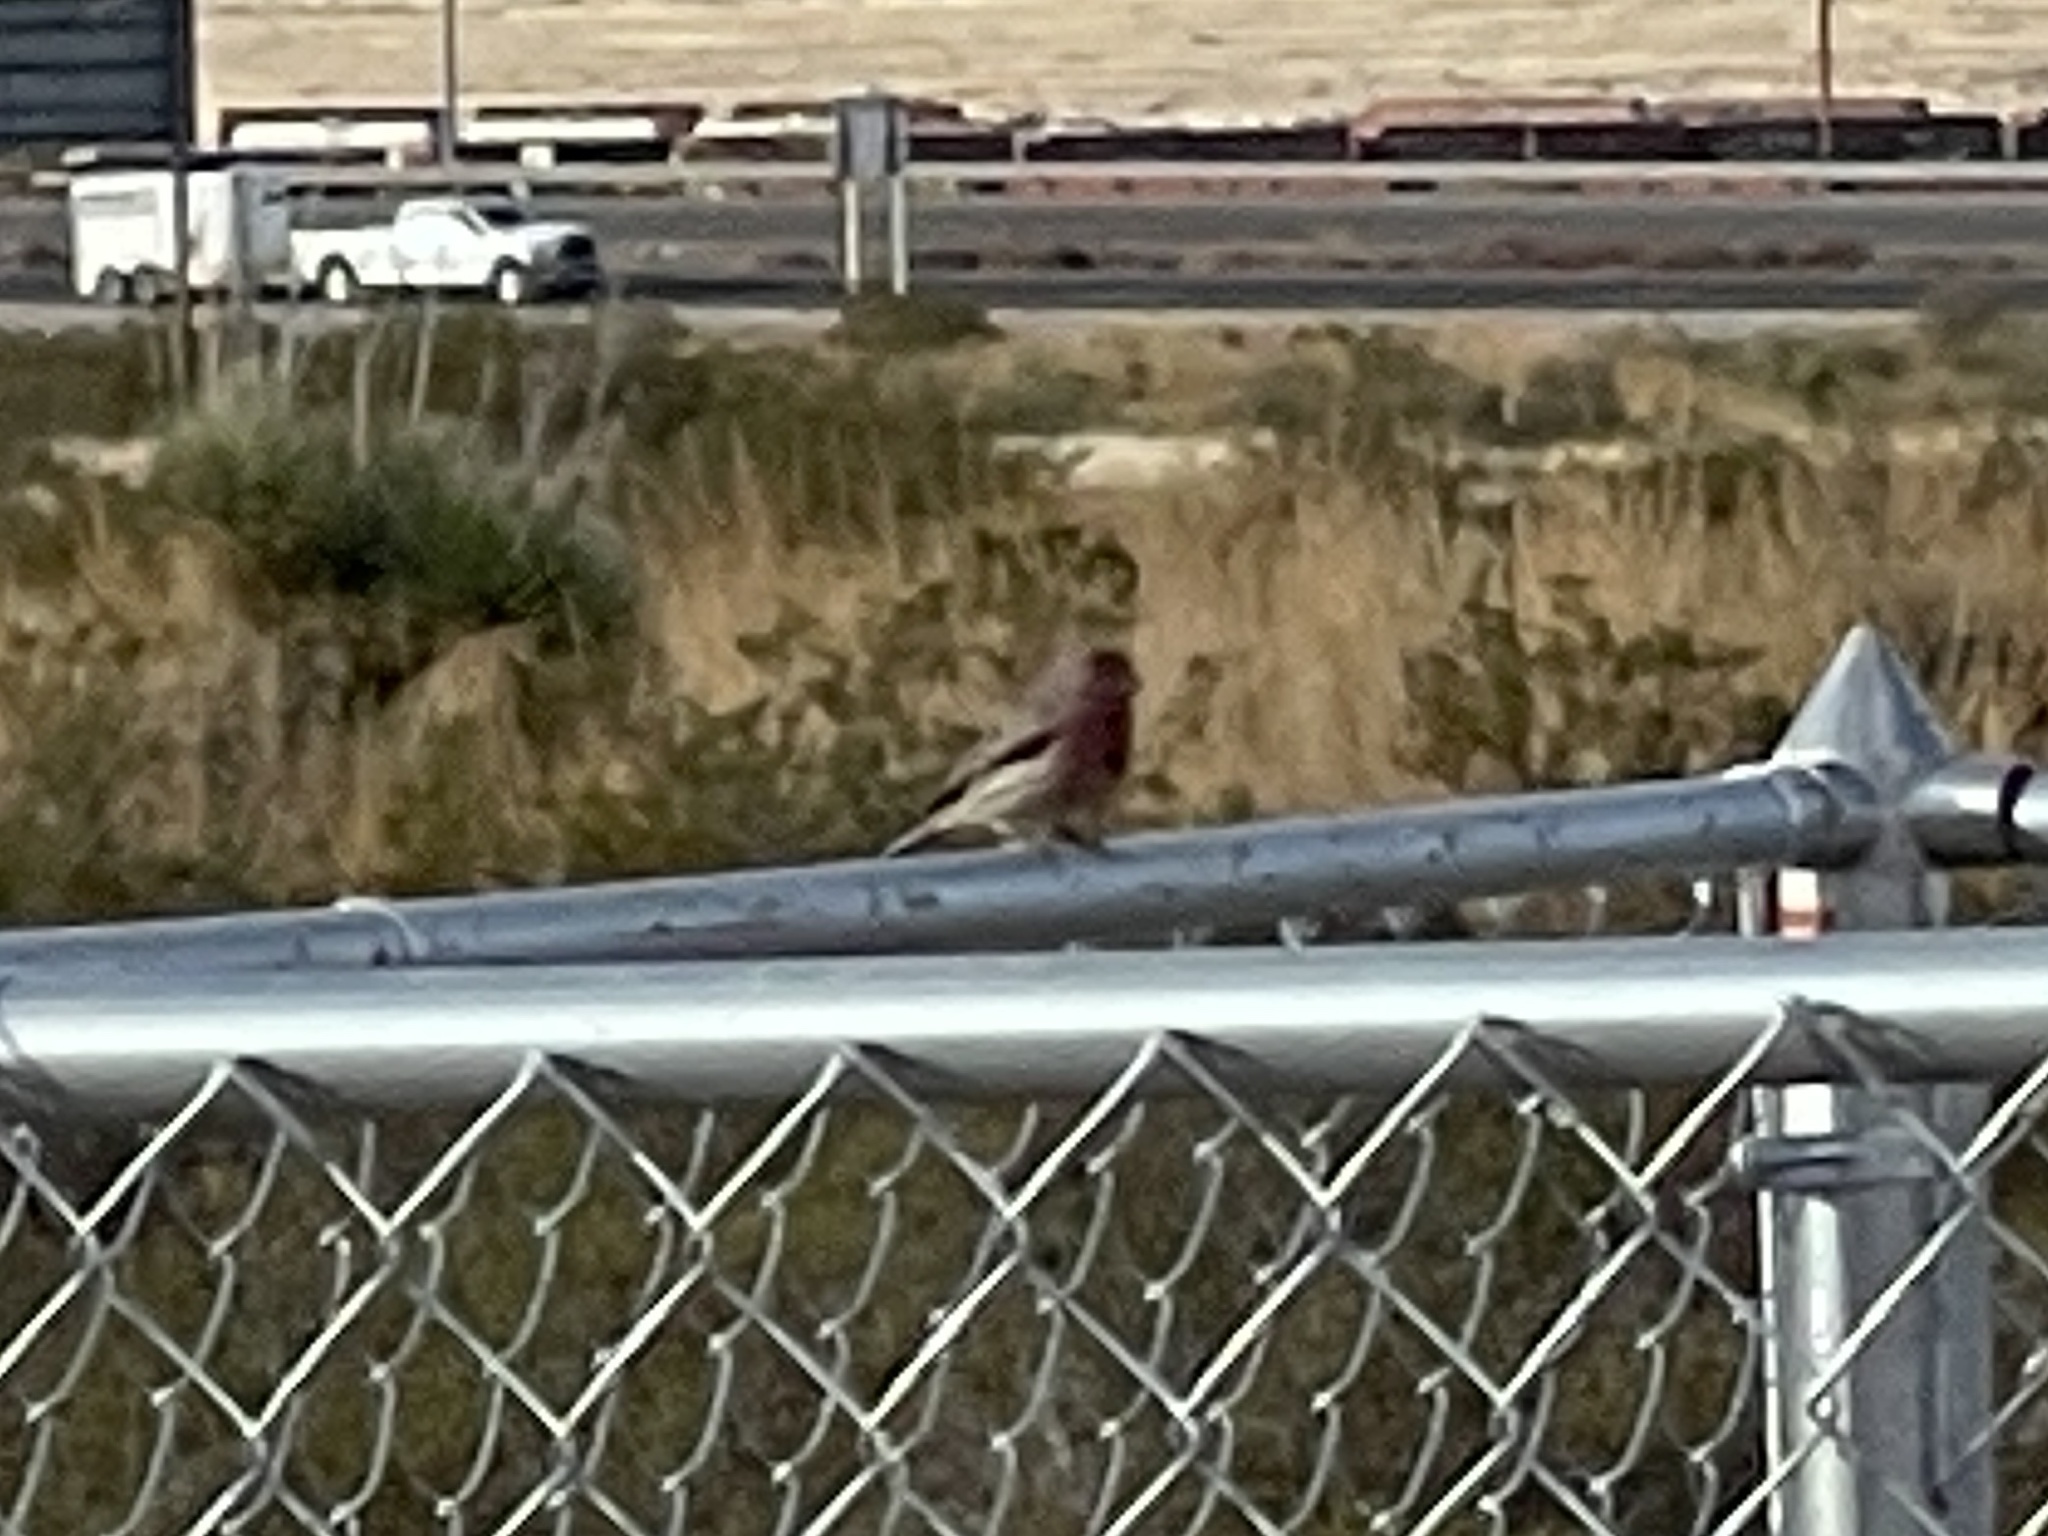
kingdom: Animalia
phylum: Chordata
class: Aves
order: Passeriformes
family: Fringillidae
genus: Haemorhous
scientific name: Haemorhous mexicanus
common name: House finch
